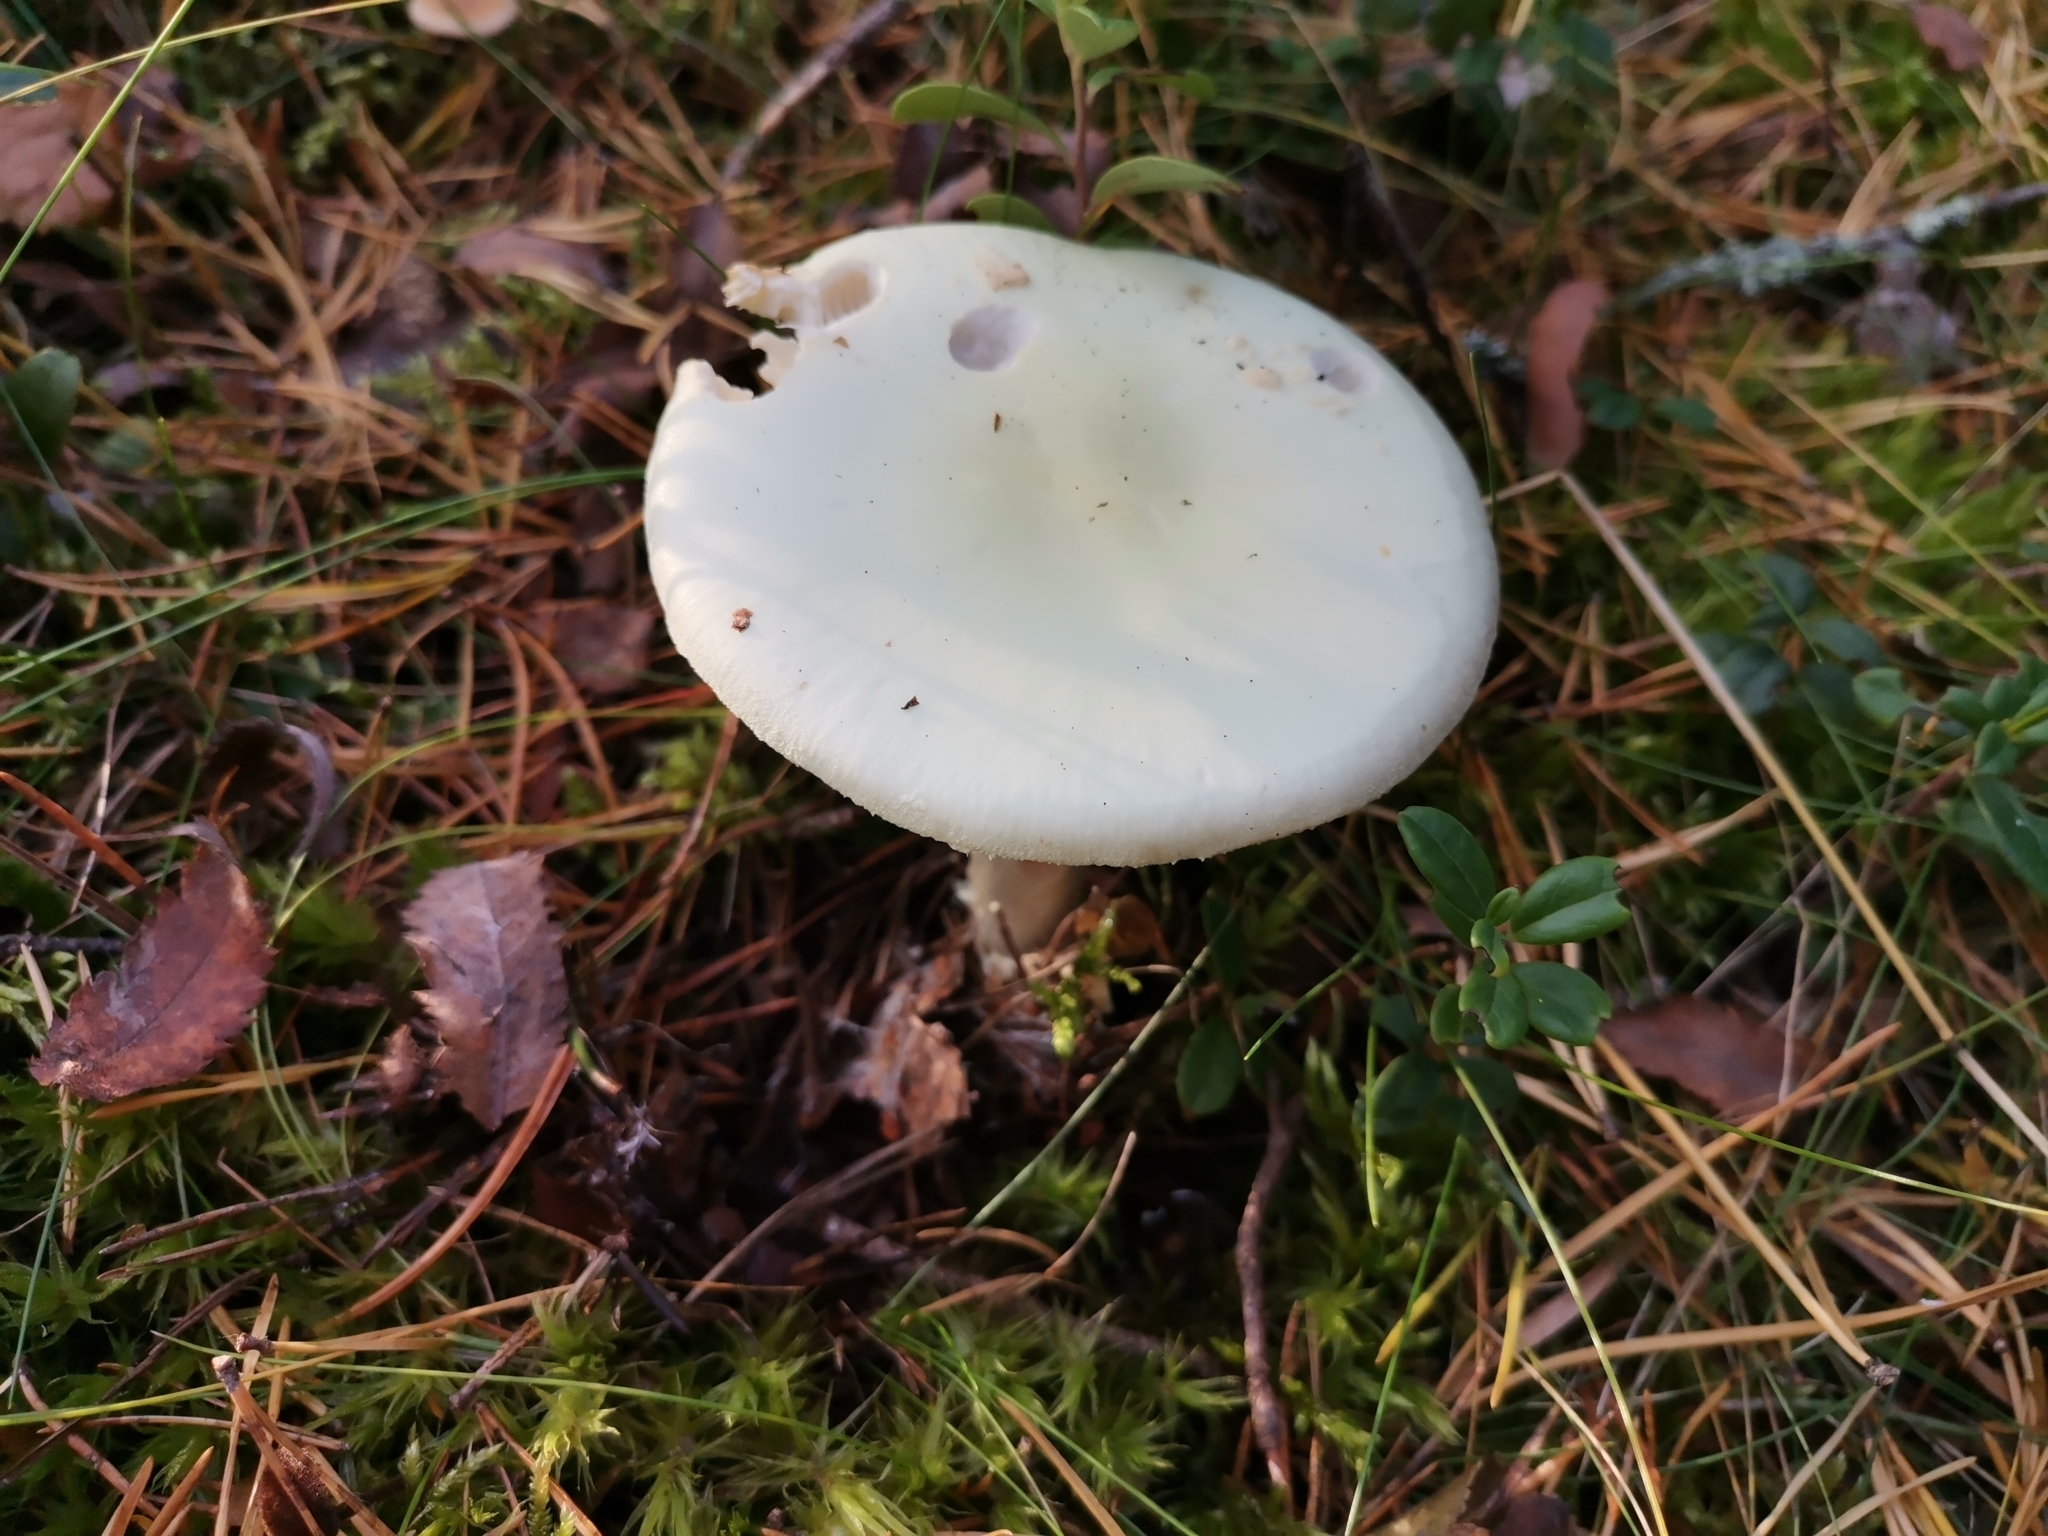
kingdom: Fungi
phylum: Basidiomycota
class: Agaricomycetes
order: Agaricales
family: Amanitaceae
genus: Amanita
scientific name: Amanita citrina
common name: False death-cap
